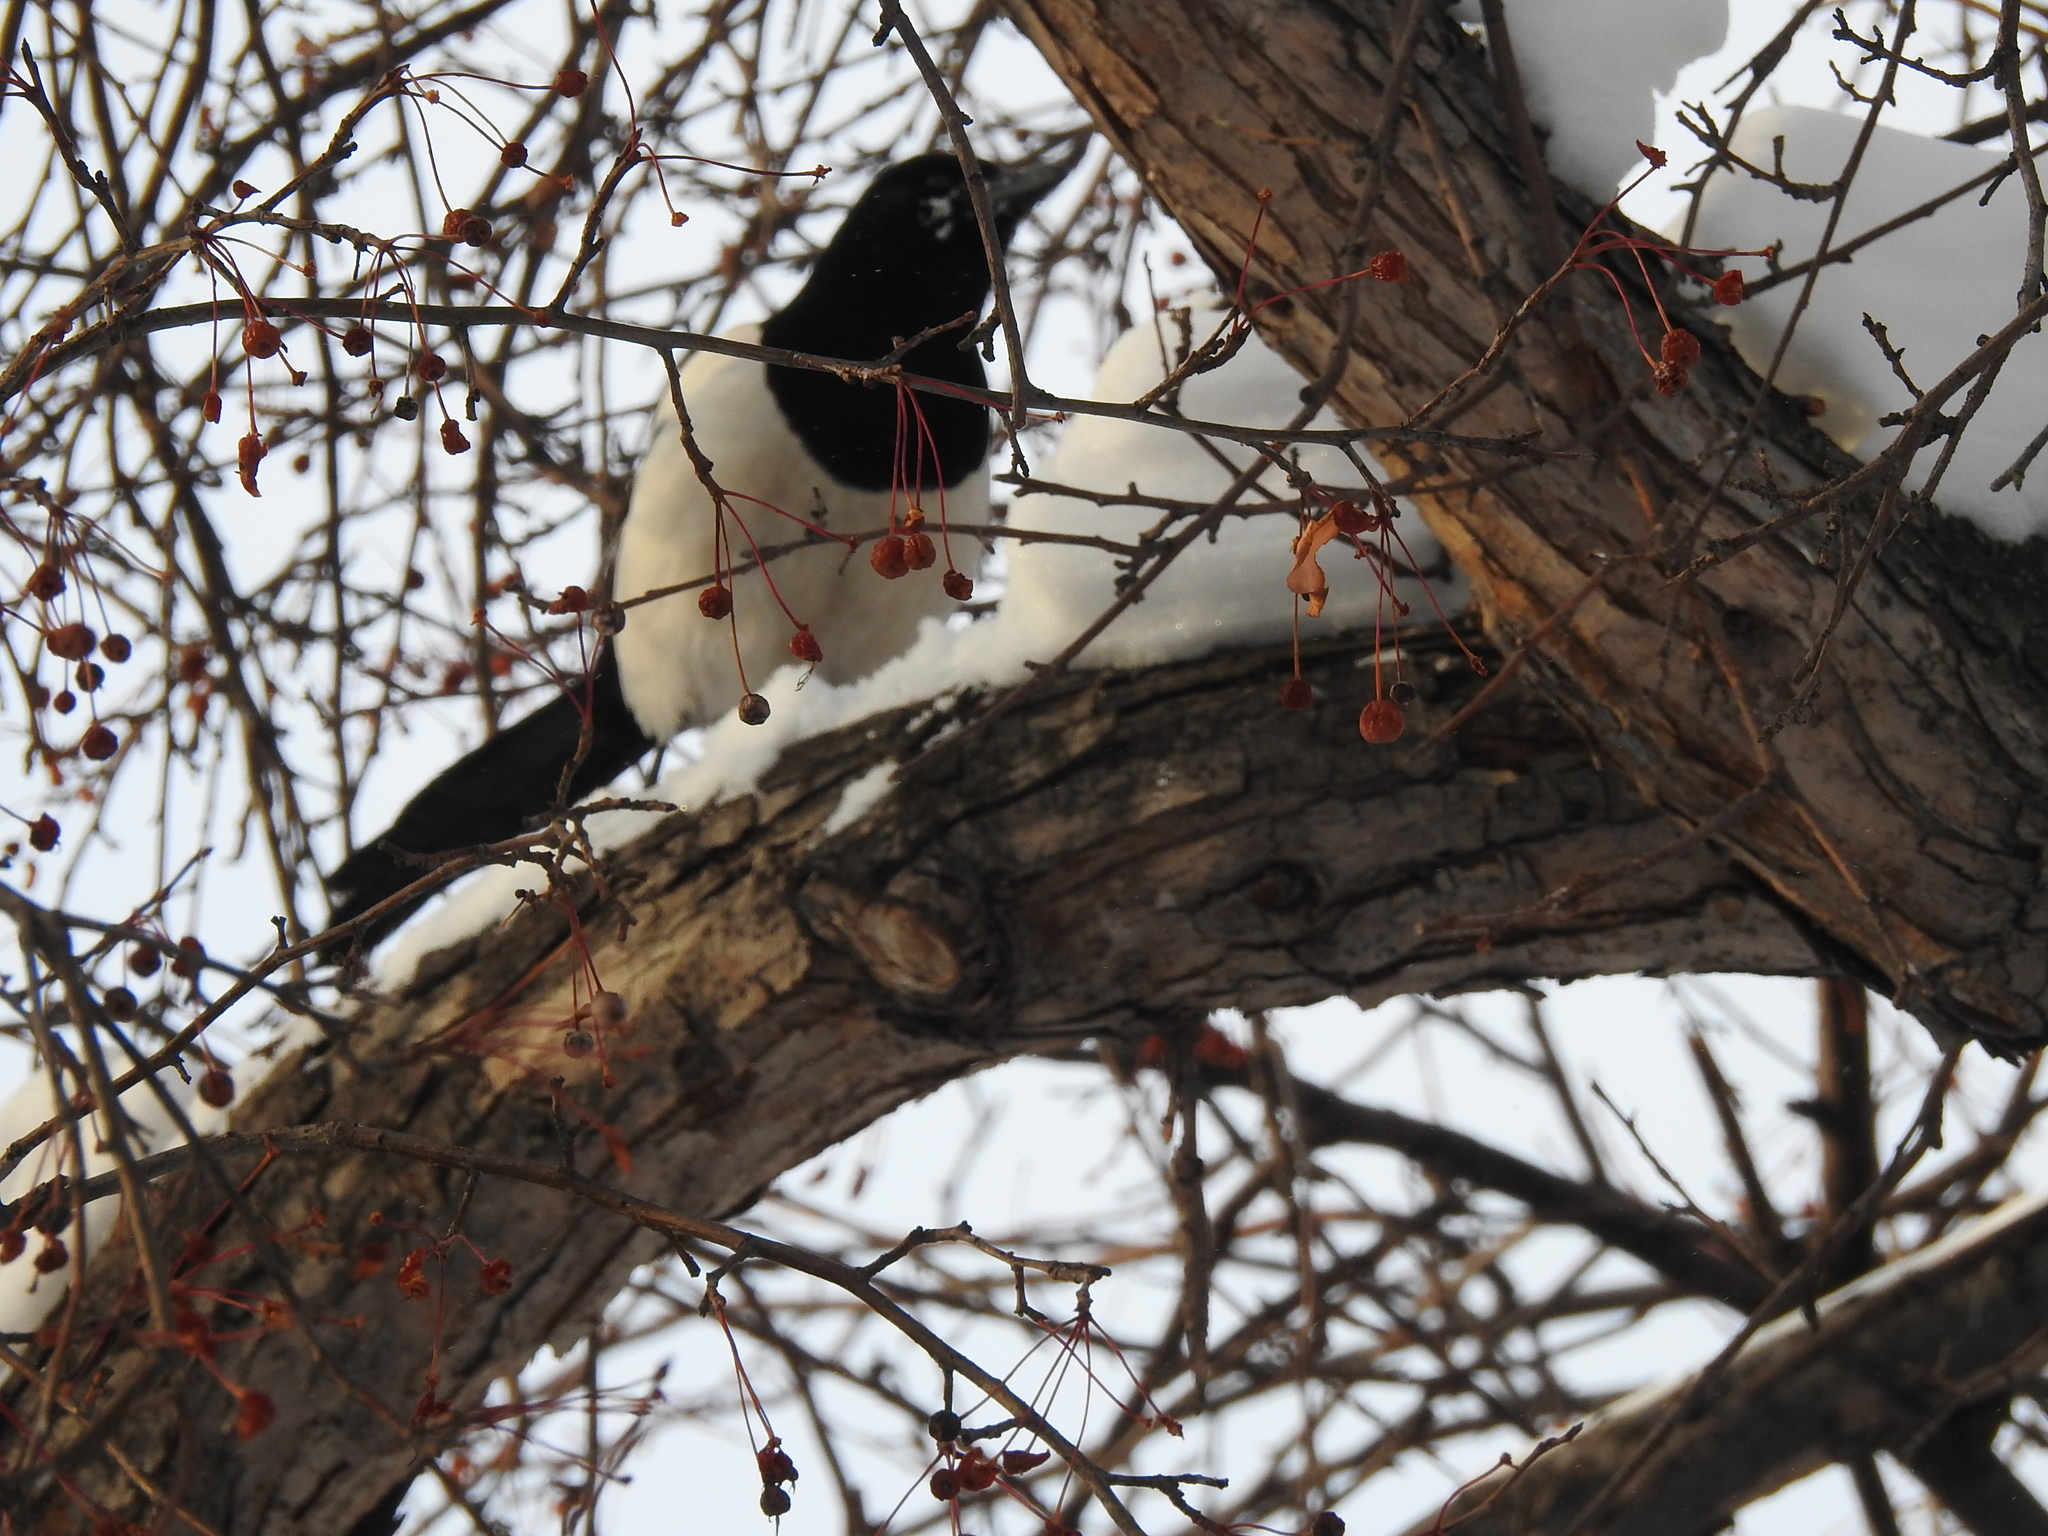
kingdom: Animalia
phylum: Chordata
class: Aves
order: Passeriformes
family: Corvidae
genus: Pica
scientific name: Pica pica
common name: Eurasian magpie
